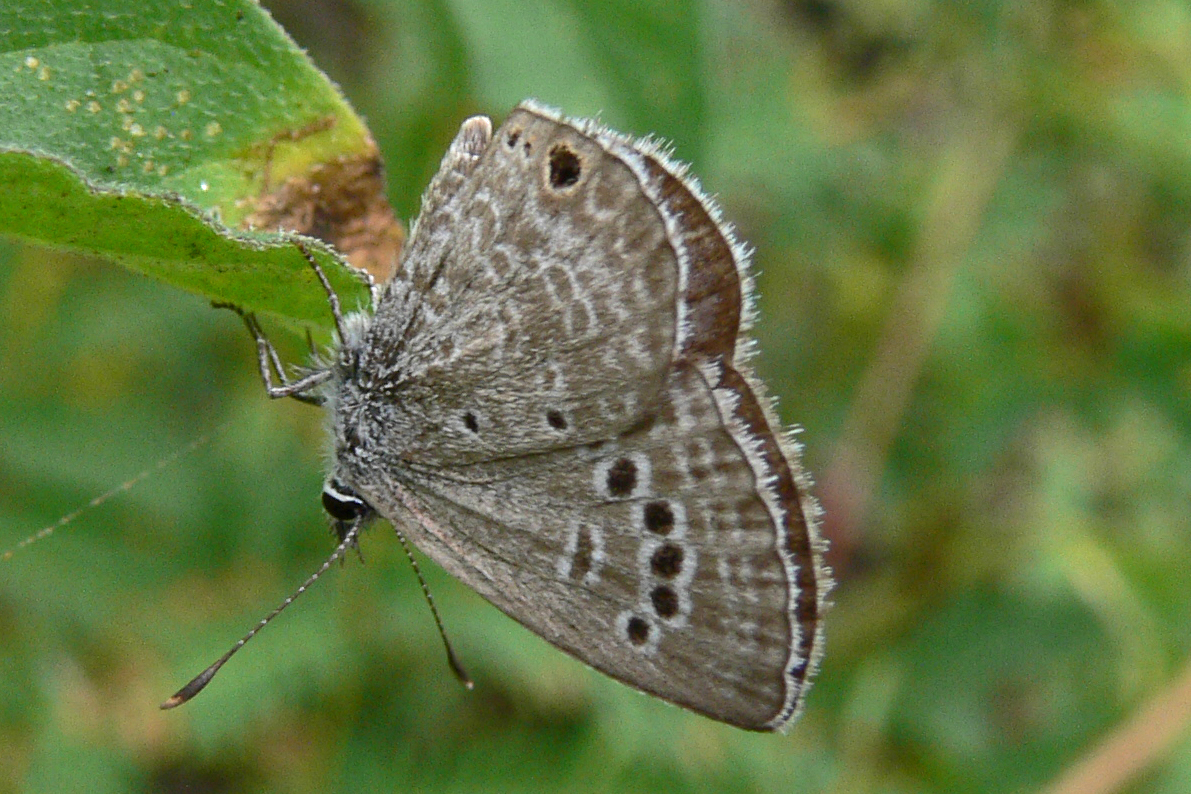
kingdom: Animalia
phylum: Arthropoda
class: Insecta
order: Lepidoptera
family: Lycaenidae
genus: Echinargus
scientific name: Echinargus isola
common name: Reakirt's blue
